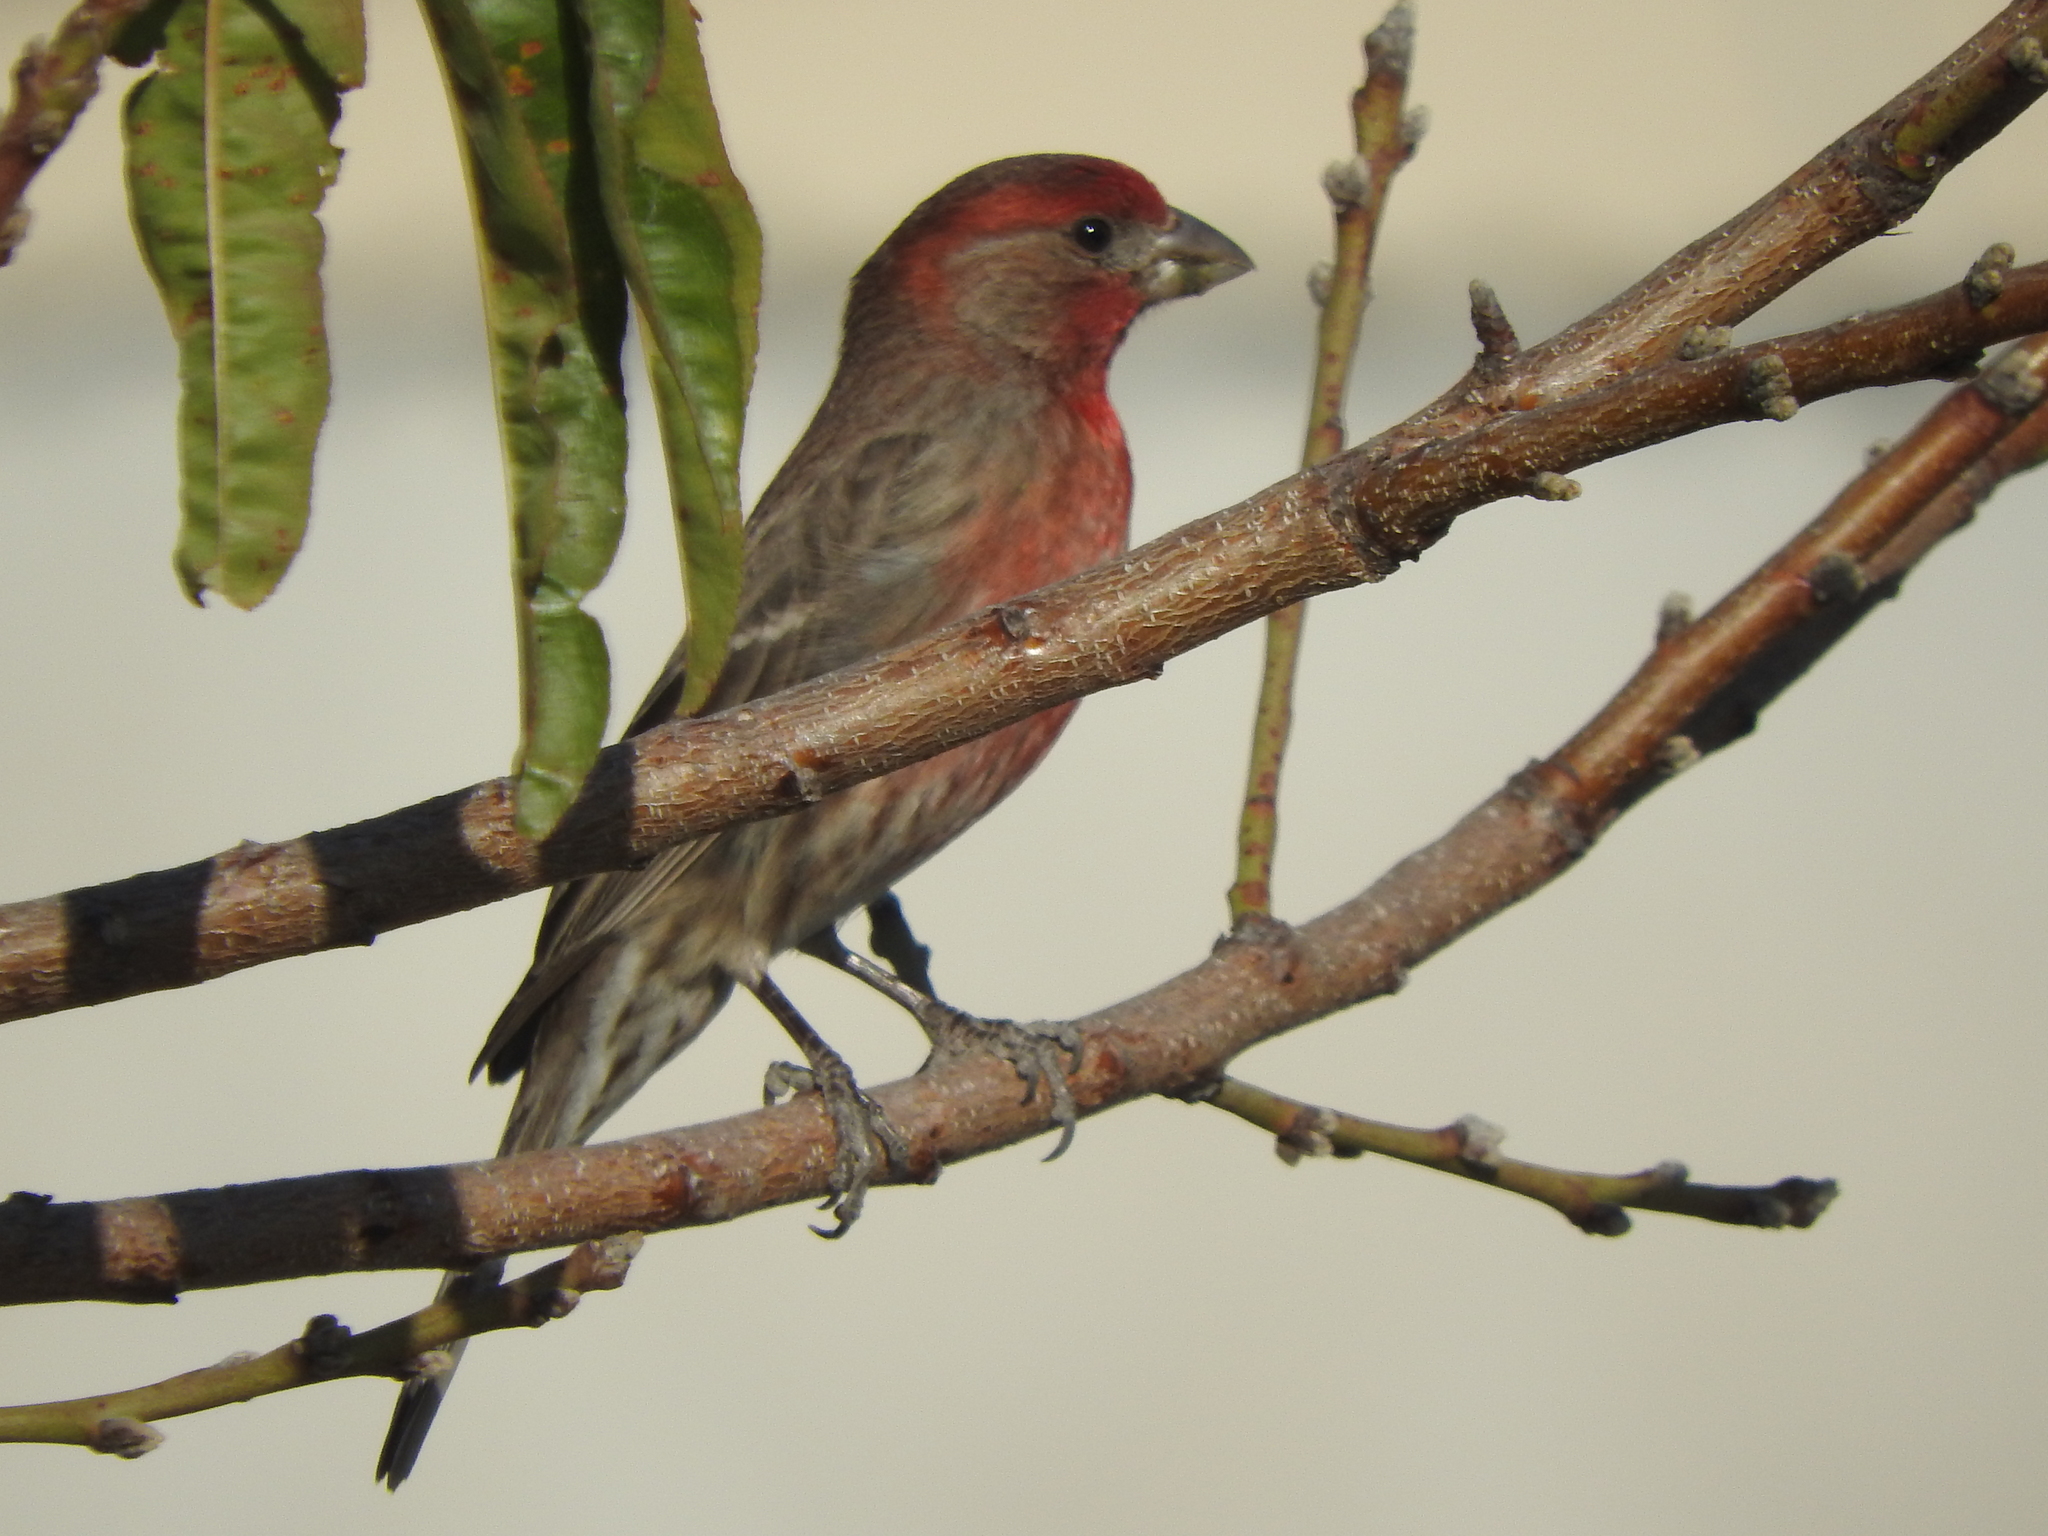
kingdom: Animalia
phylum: Chordata
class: Aves
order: Passeriformes
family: Fringillidae
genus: Haemorhous
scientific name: Haemorhous mexicanus
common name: House finch
